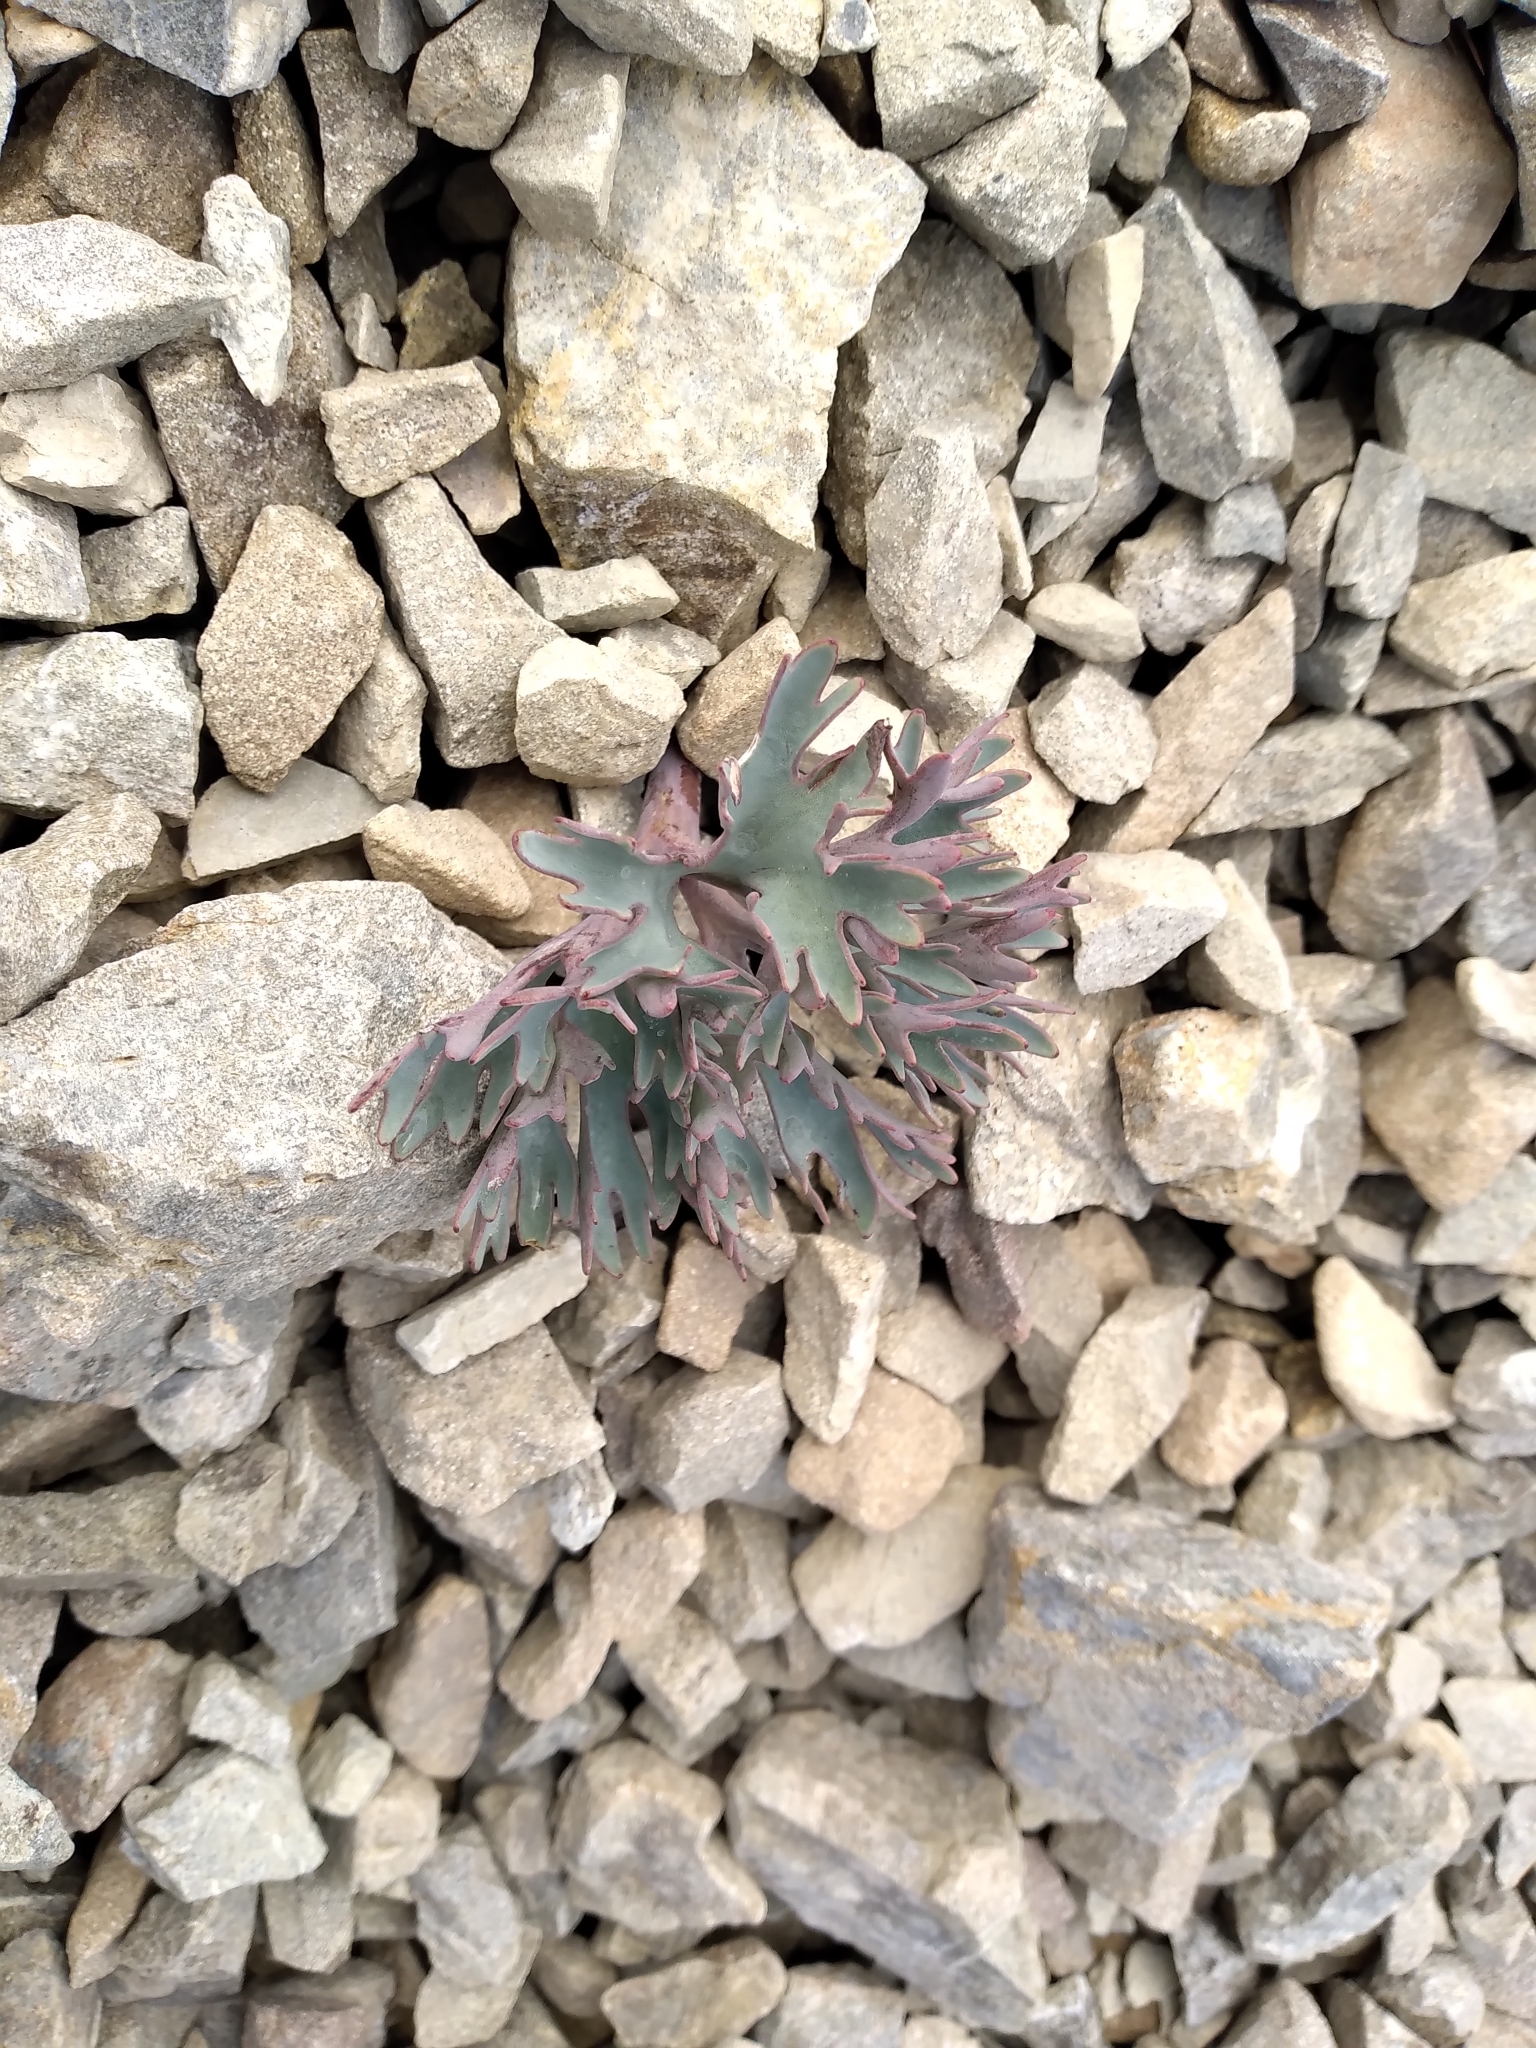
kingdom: Plantae
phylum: Tracheophyta
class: Magnoliopsida
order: Ranunculales
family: Ranunculaceae
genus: Ranunculus
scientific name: Ranunculus haastii
